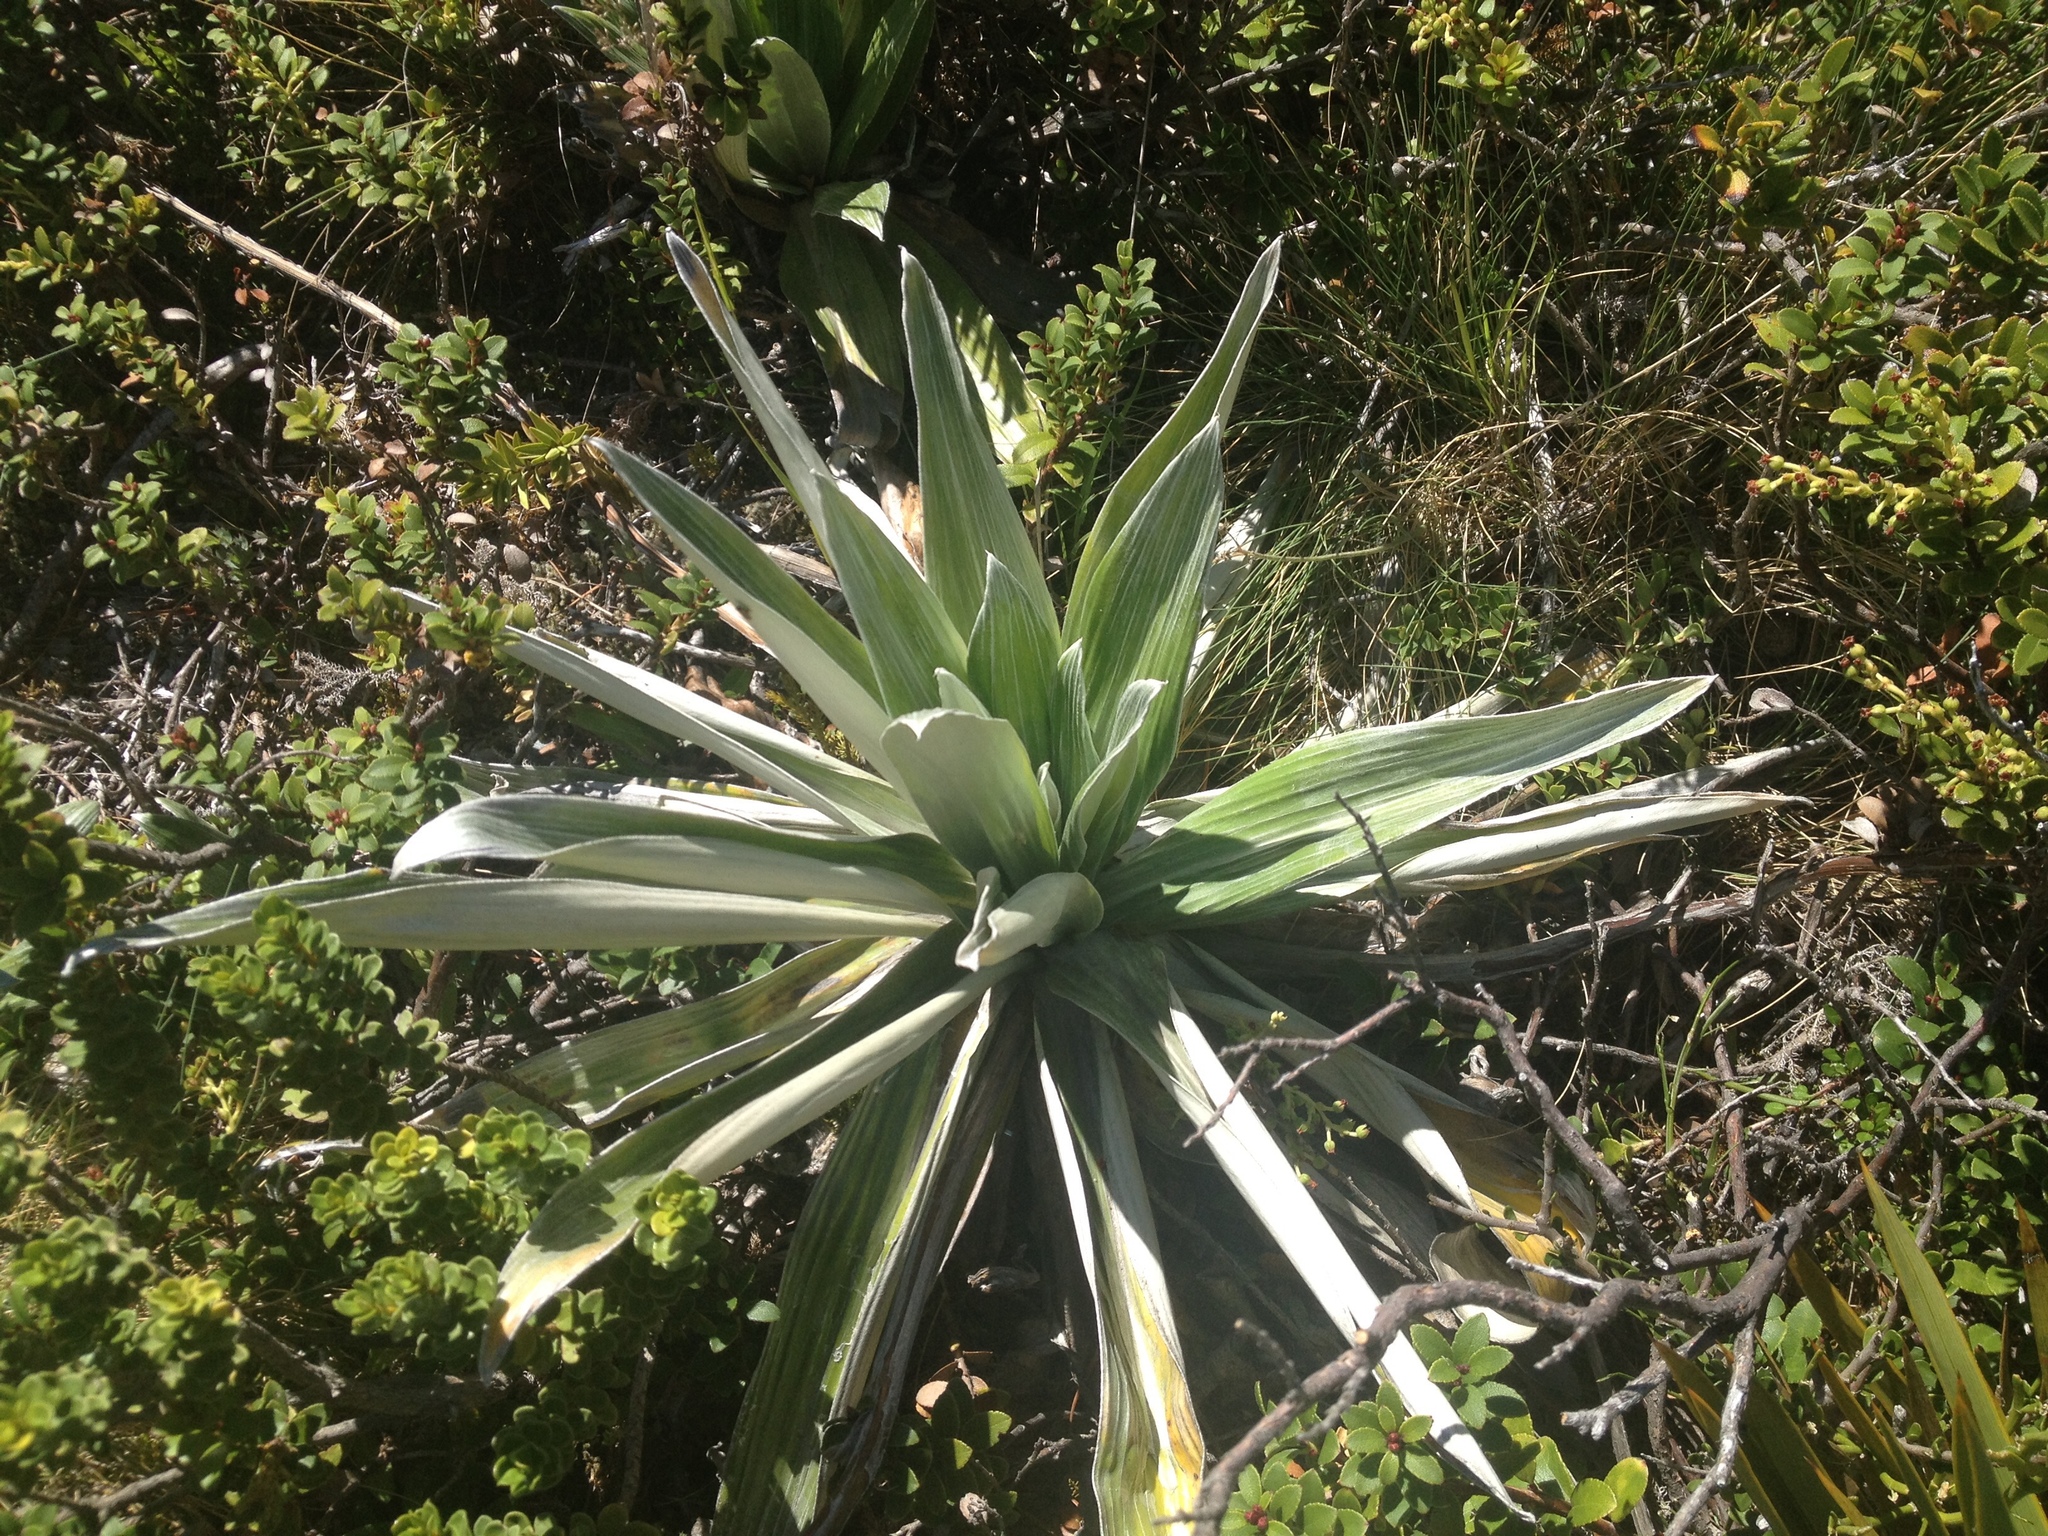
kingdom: Plantae
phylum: Tracheophyta
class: Magnoliopsida
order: Asterales
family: Asteraceae
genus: Celmisia
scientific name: Celmisia semicordata
